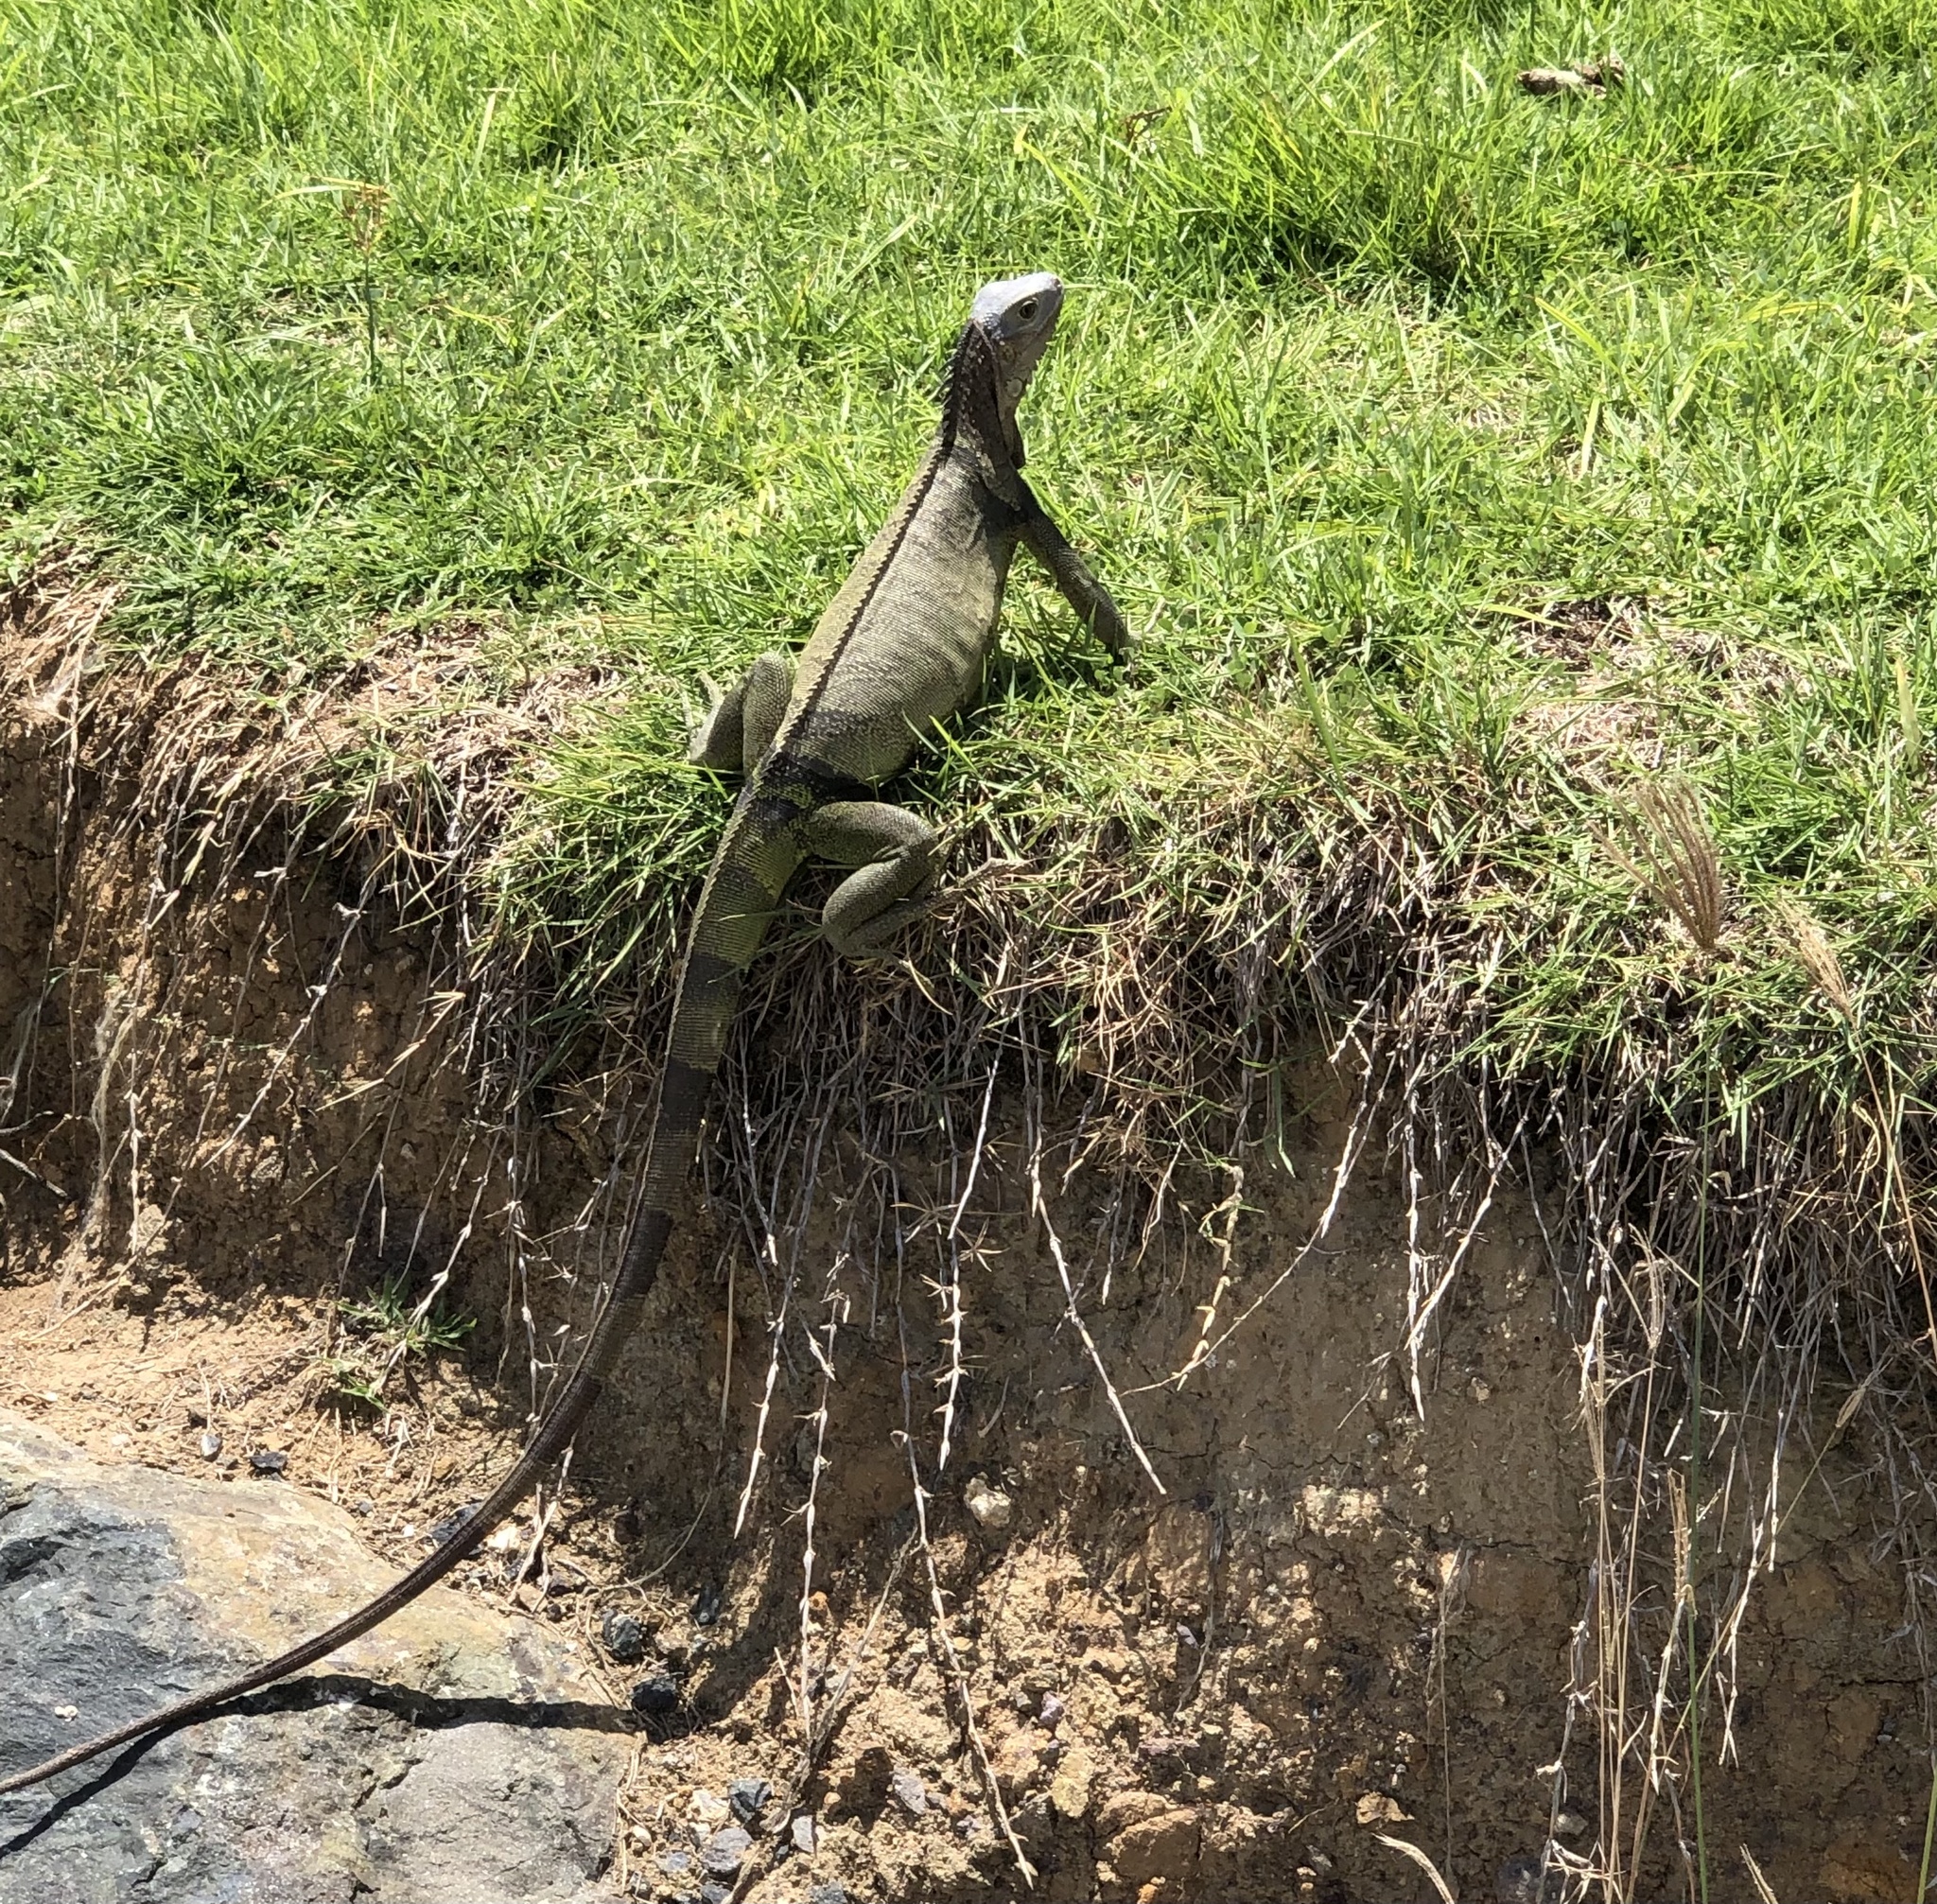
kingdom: Animalia
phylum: Chordata
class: Squamata
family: Iguanidae
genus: Iguana
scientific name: Iguana iguana
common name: Green iguana
